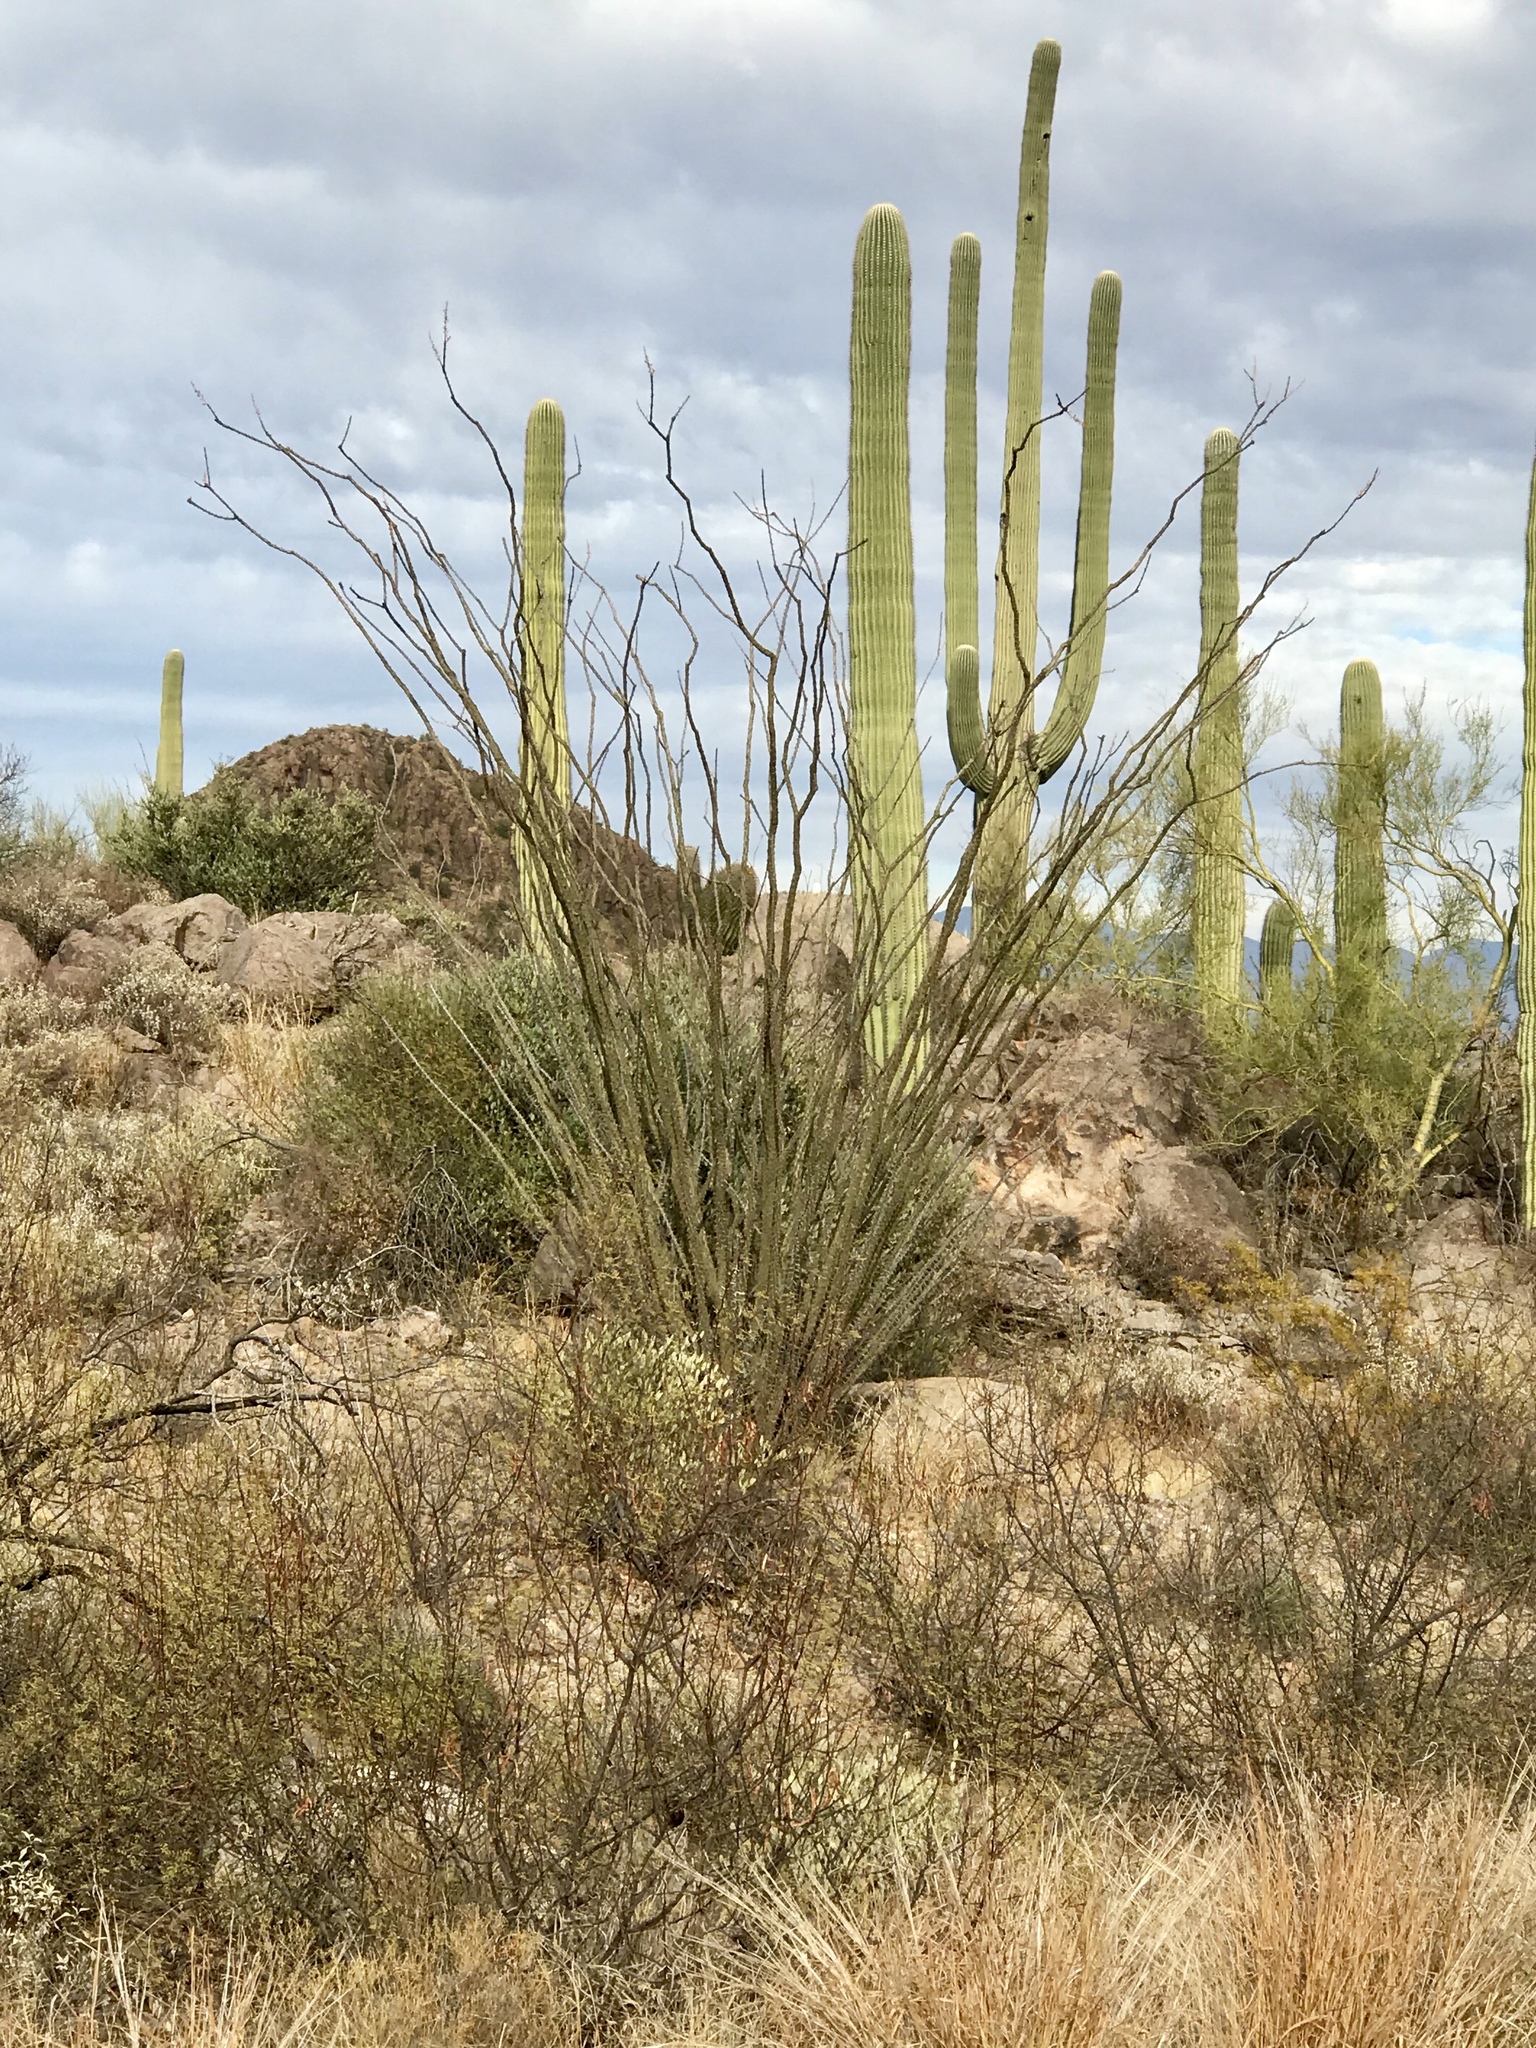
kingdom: Plantae
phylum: Tracheophyta
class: Magnoliopsida
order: Ericales
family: Fouquieriaceae
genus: Fouquieria
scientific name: Fouquieria splendens
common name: Vine-cactus
